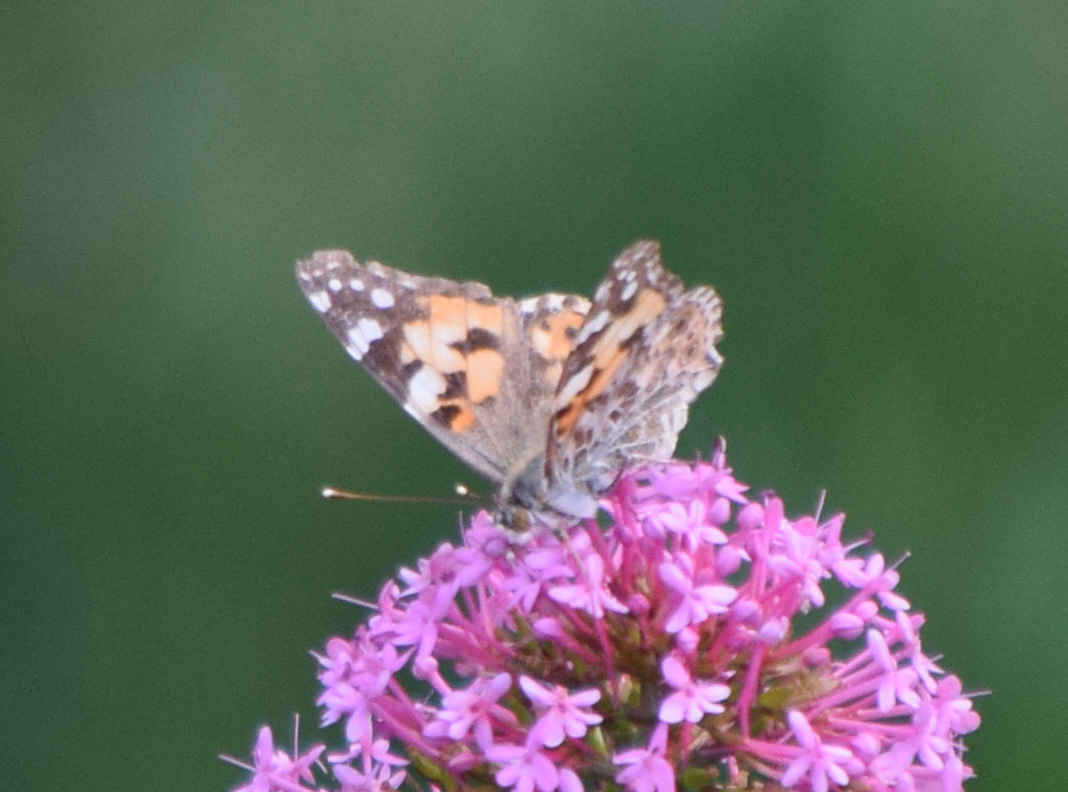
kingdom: Animalia
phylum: Arthropoda
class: Insecta
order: Lepidoptera
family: Nymphalidae
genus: Vanessa
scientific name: Vanessa cardui
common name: Painted lady
